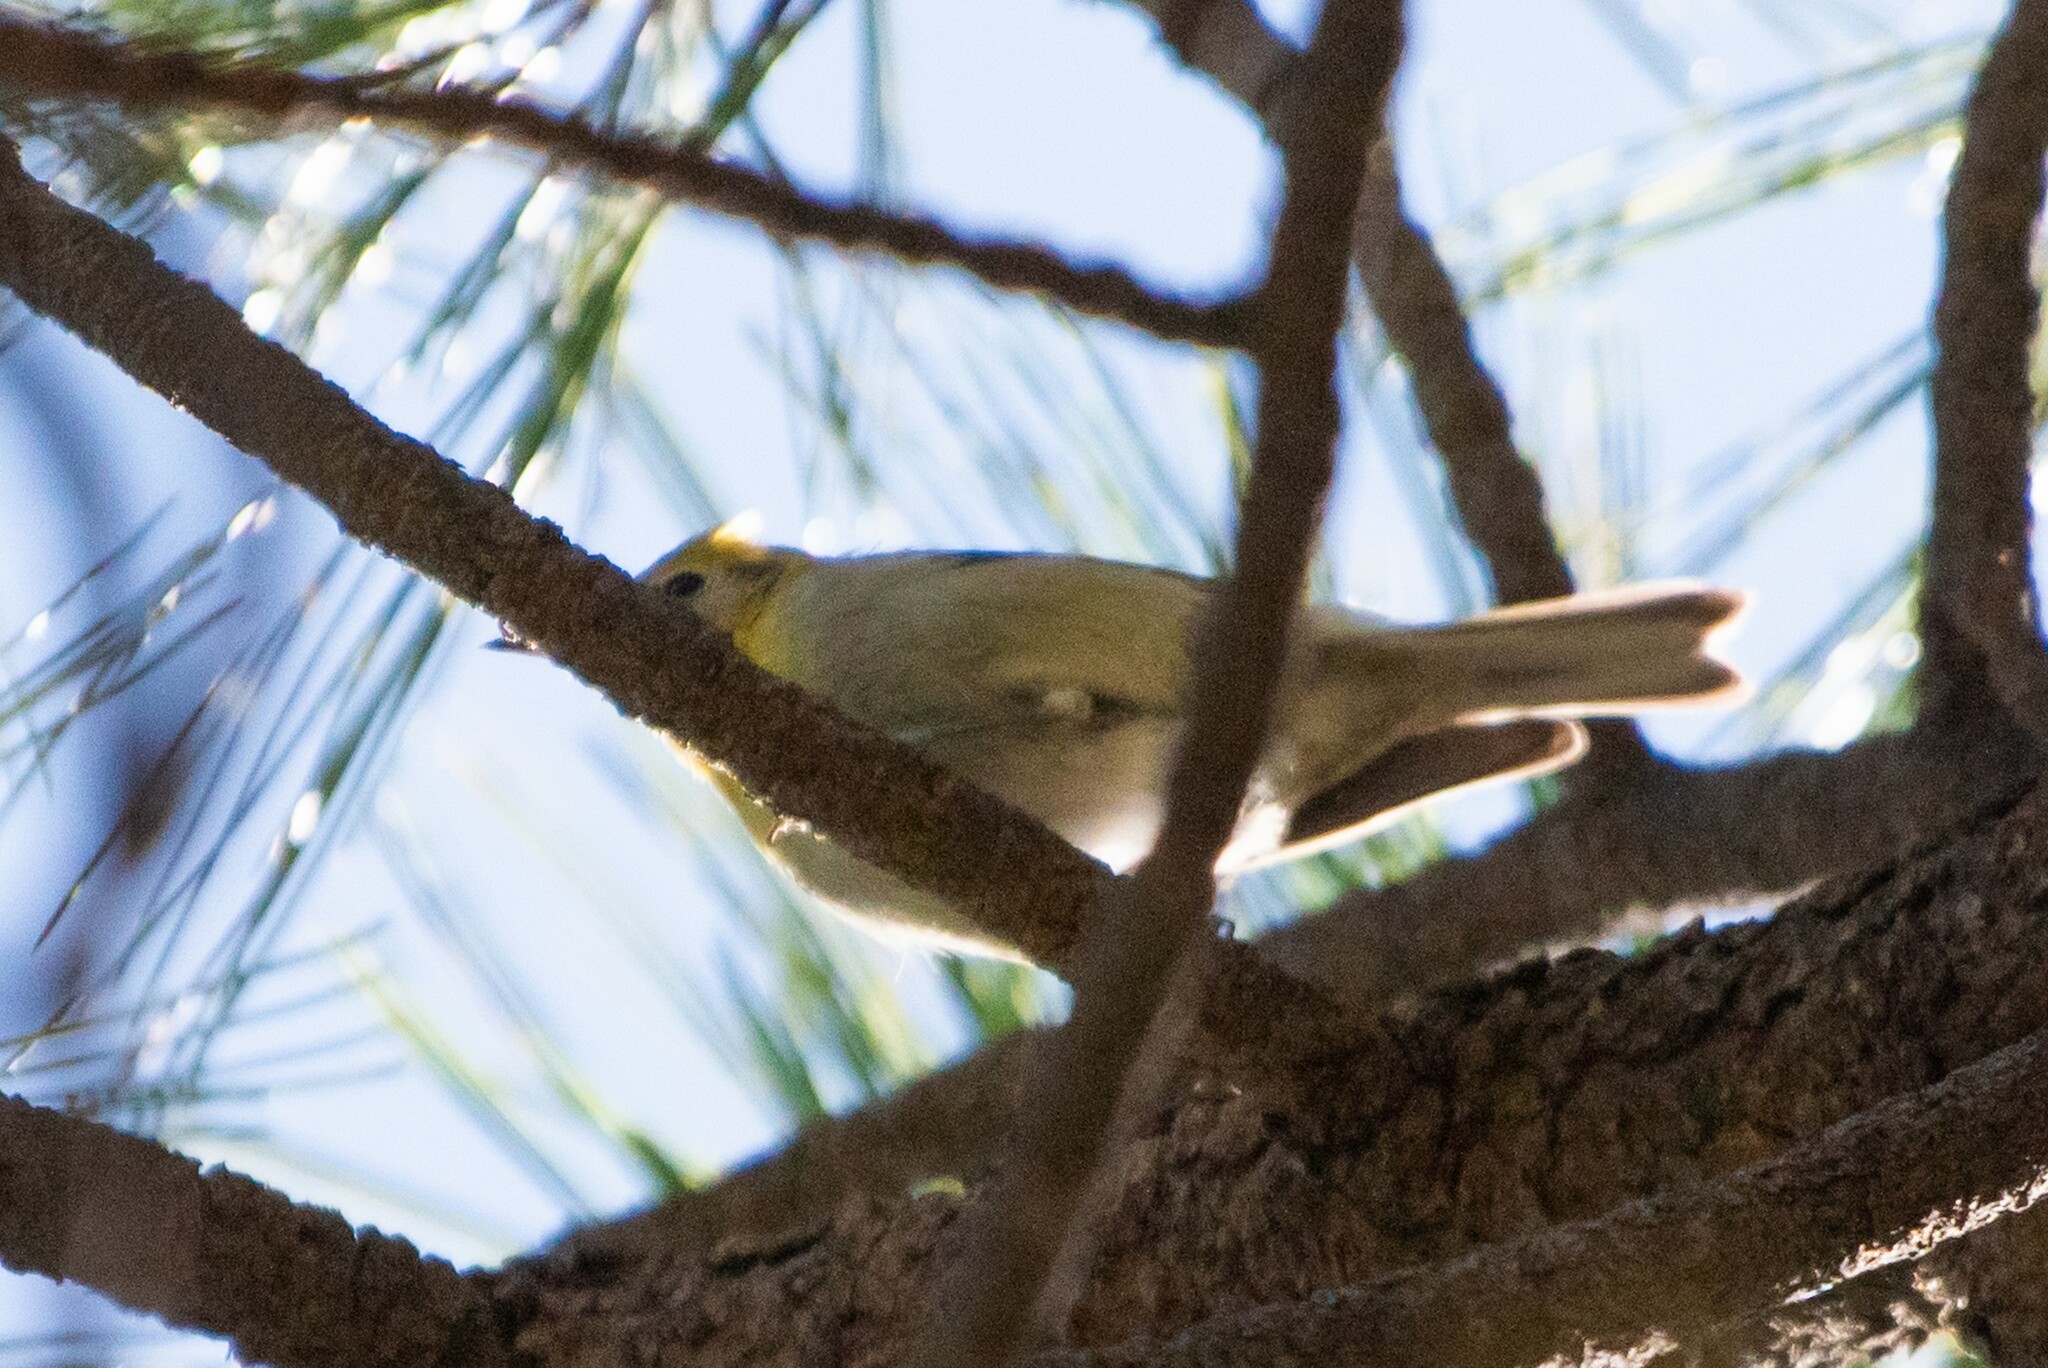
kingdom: Animalia
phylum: Chordata
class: Aves
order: Passeriformes
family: Peucedramidae
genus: Peucedramus
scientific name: Peucedramus taeniatus
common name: Olive warbler
